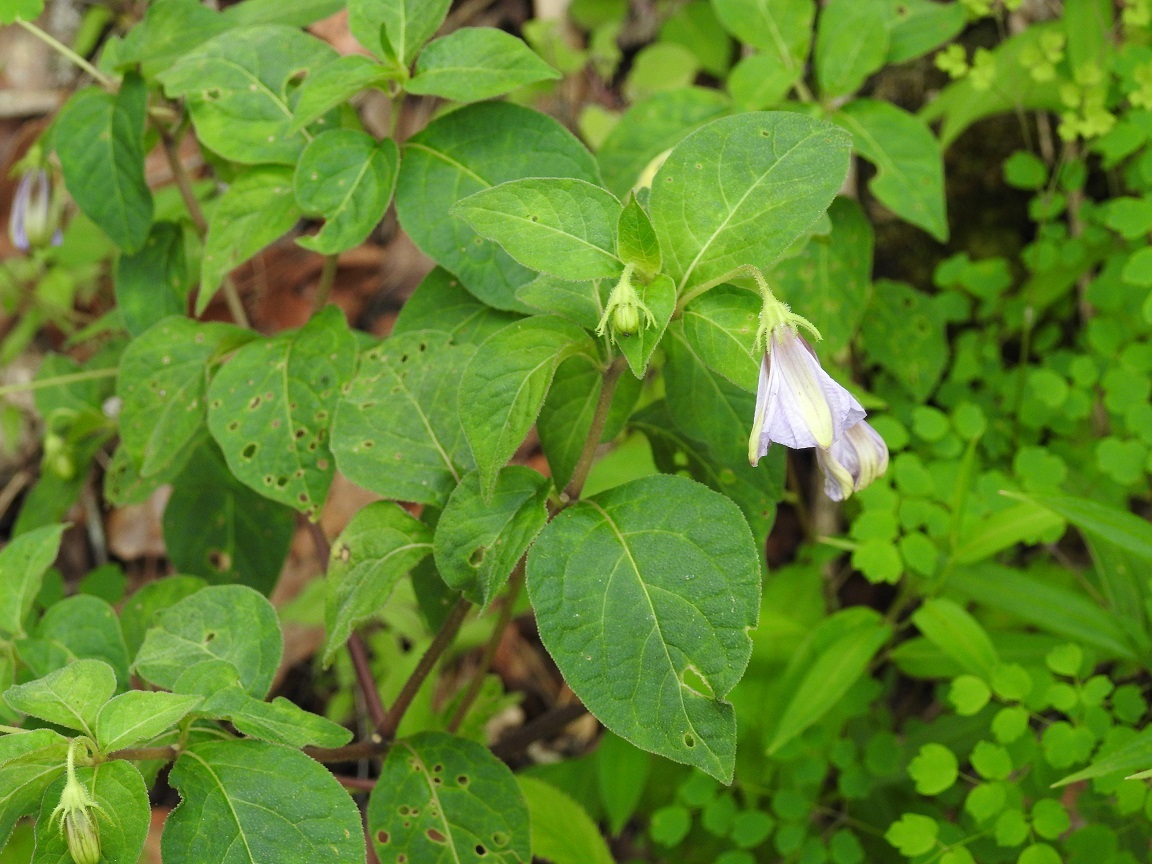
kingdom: Plantae
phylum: Tracheophyta
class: Magnoliopsida
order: Solanales
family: Solanaceae
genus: Lycianthes
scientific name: Lycianthes ciliolata
